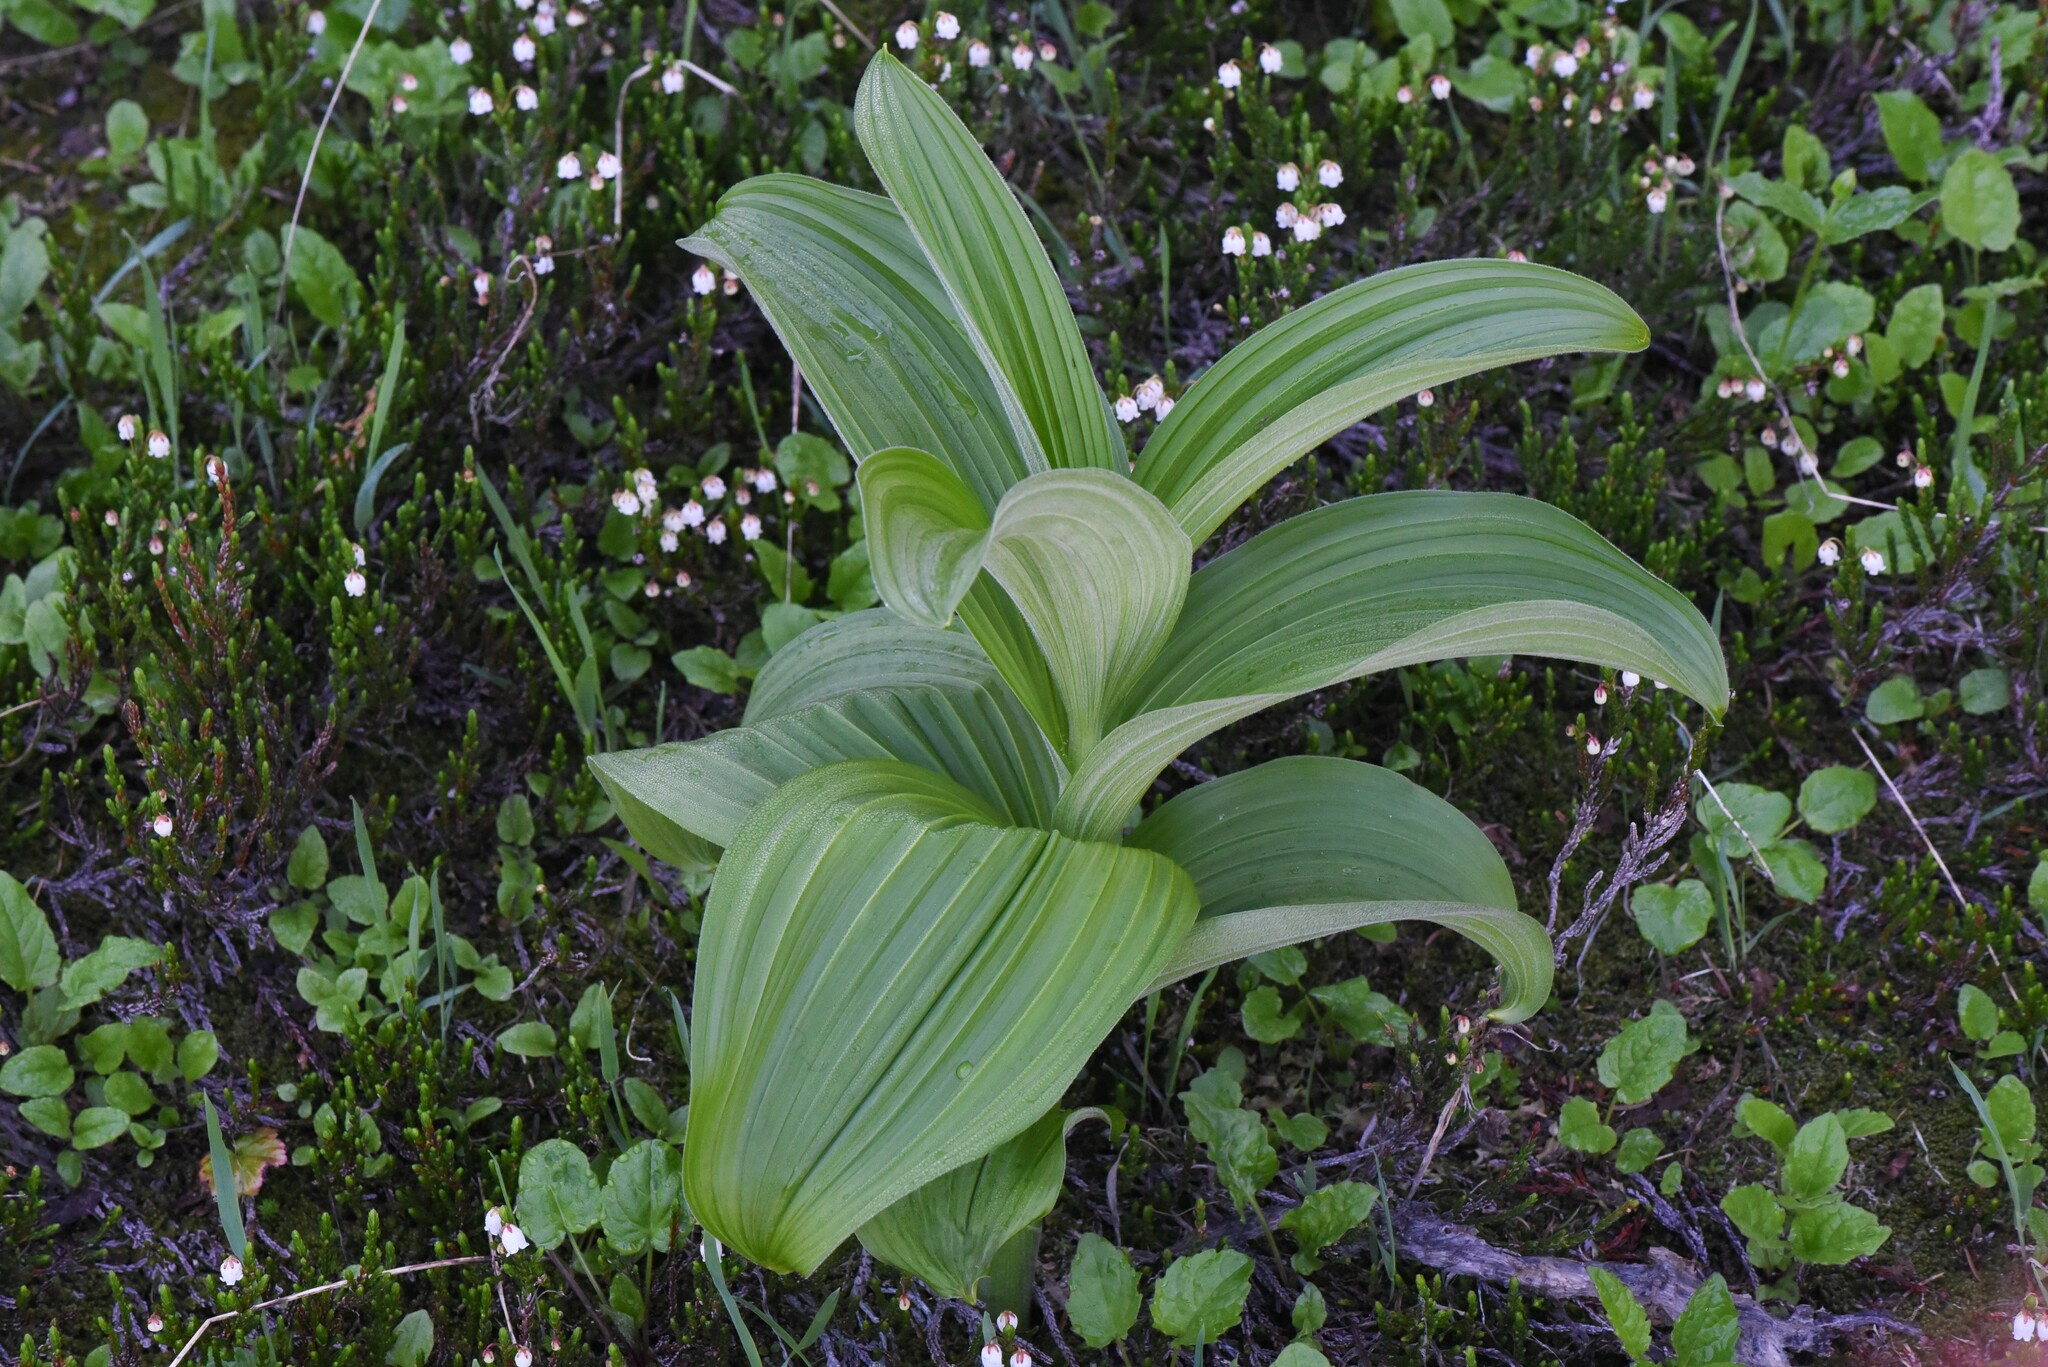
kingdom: Plantae
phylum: Tracheophyta
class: Liliopsida
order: Liliales
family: Melanthiaceae
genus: Veratrum
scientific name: Veratrum viride
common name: American false hellebore
